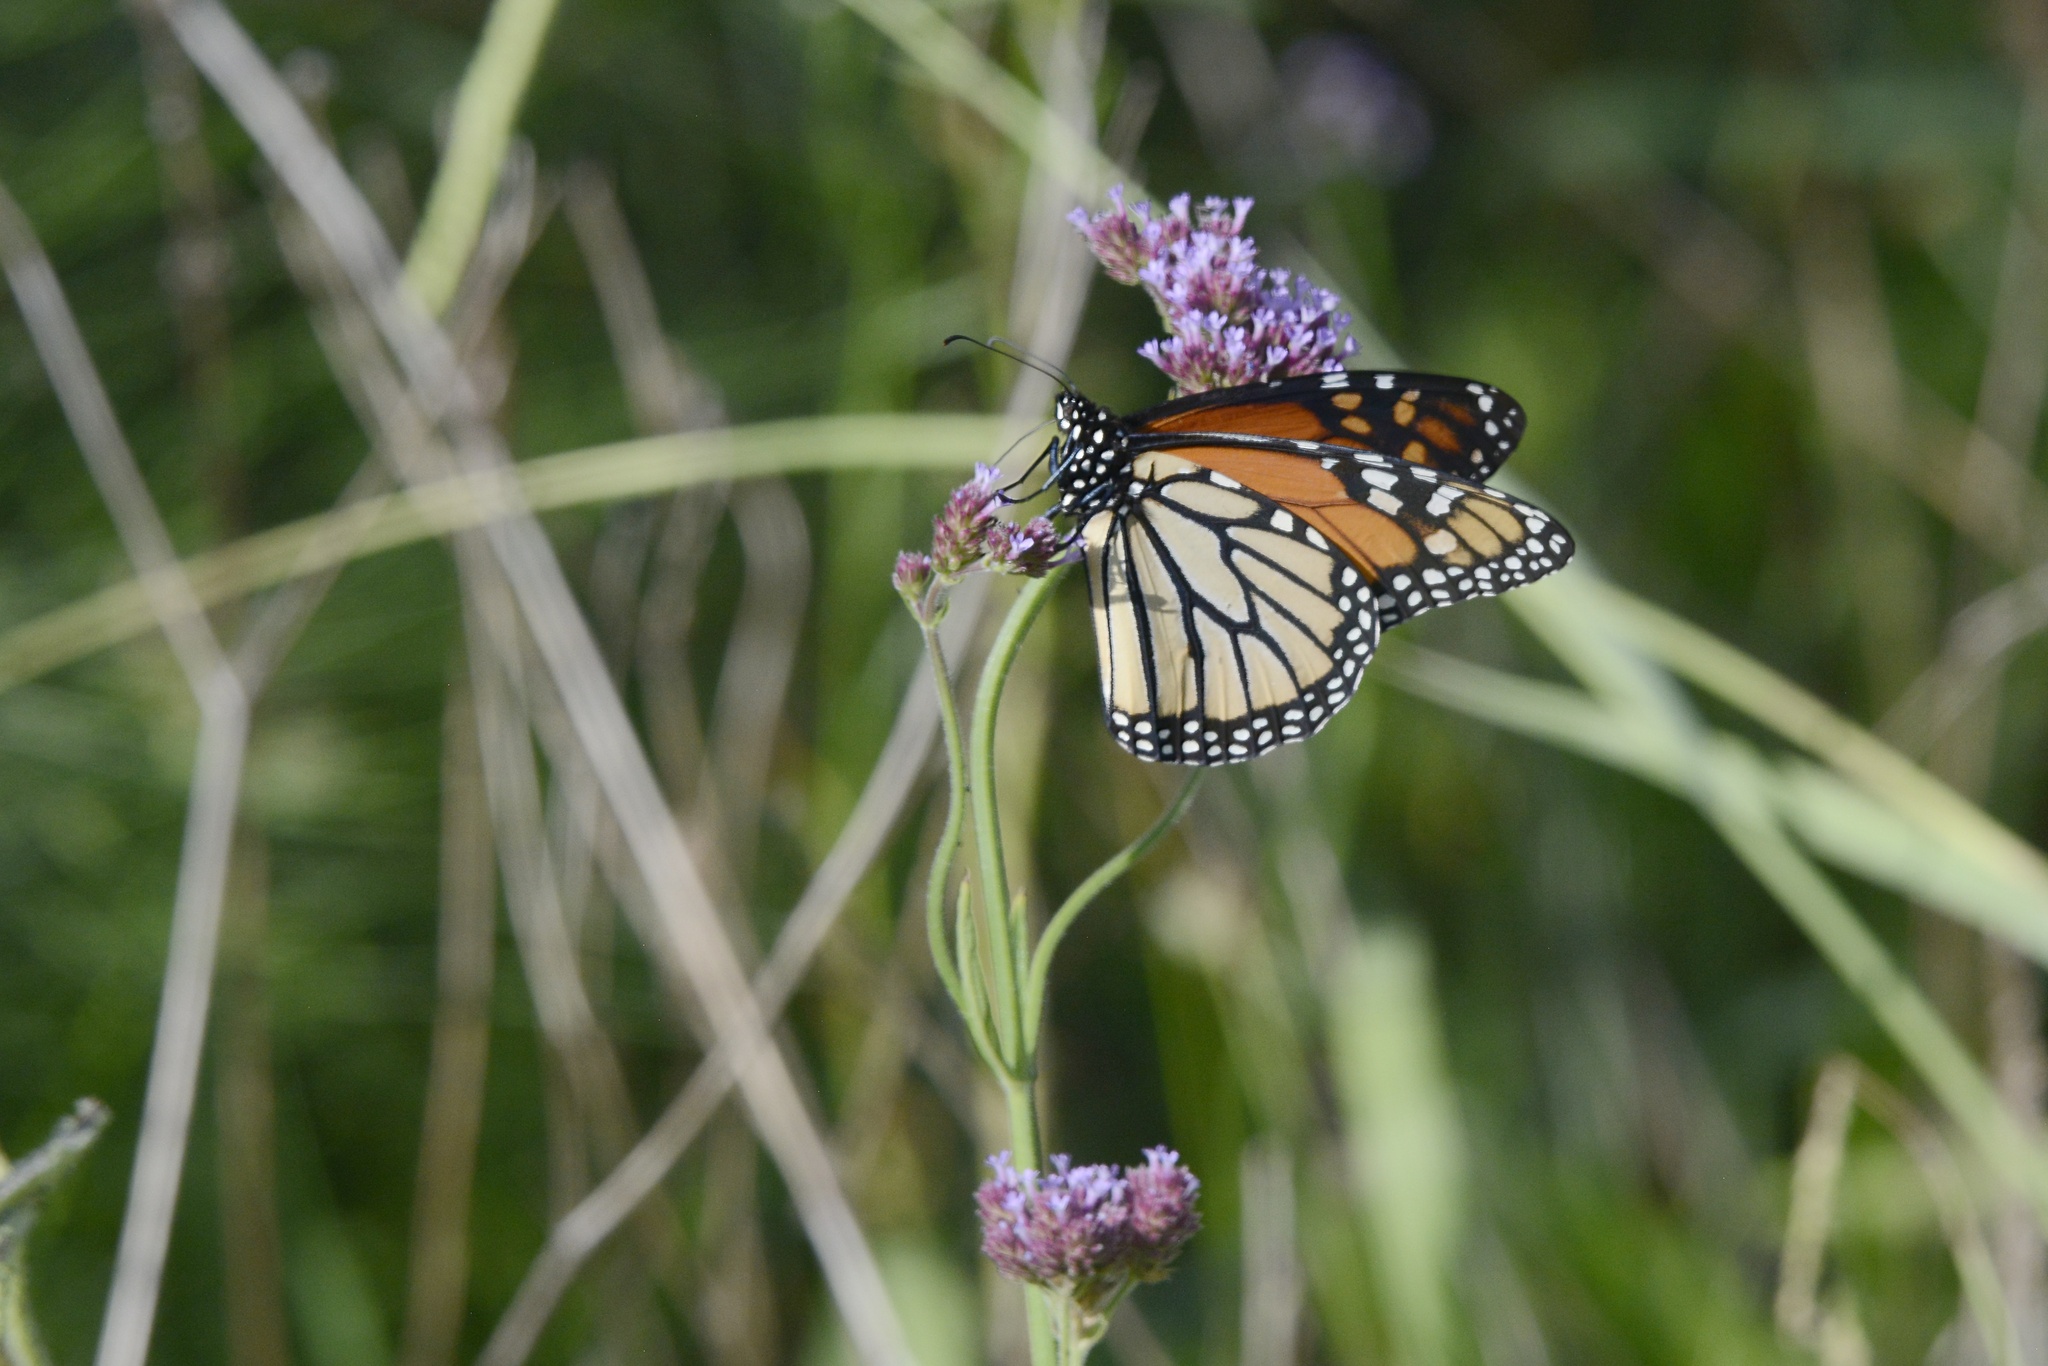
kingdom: Animalia
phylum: Arthropoda
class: Insecta
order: Lepidoptera
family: Nymphalidae
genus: Danaus
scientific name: Danaus plexippus
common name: Monarch
